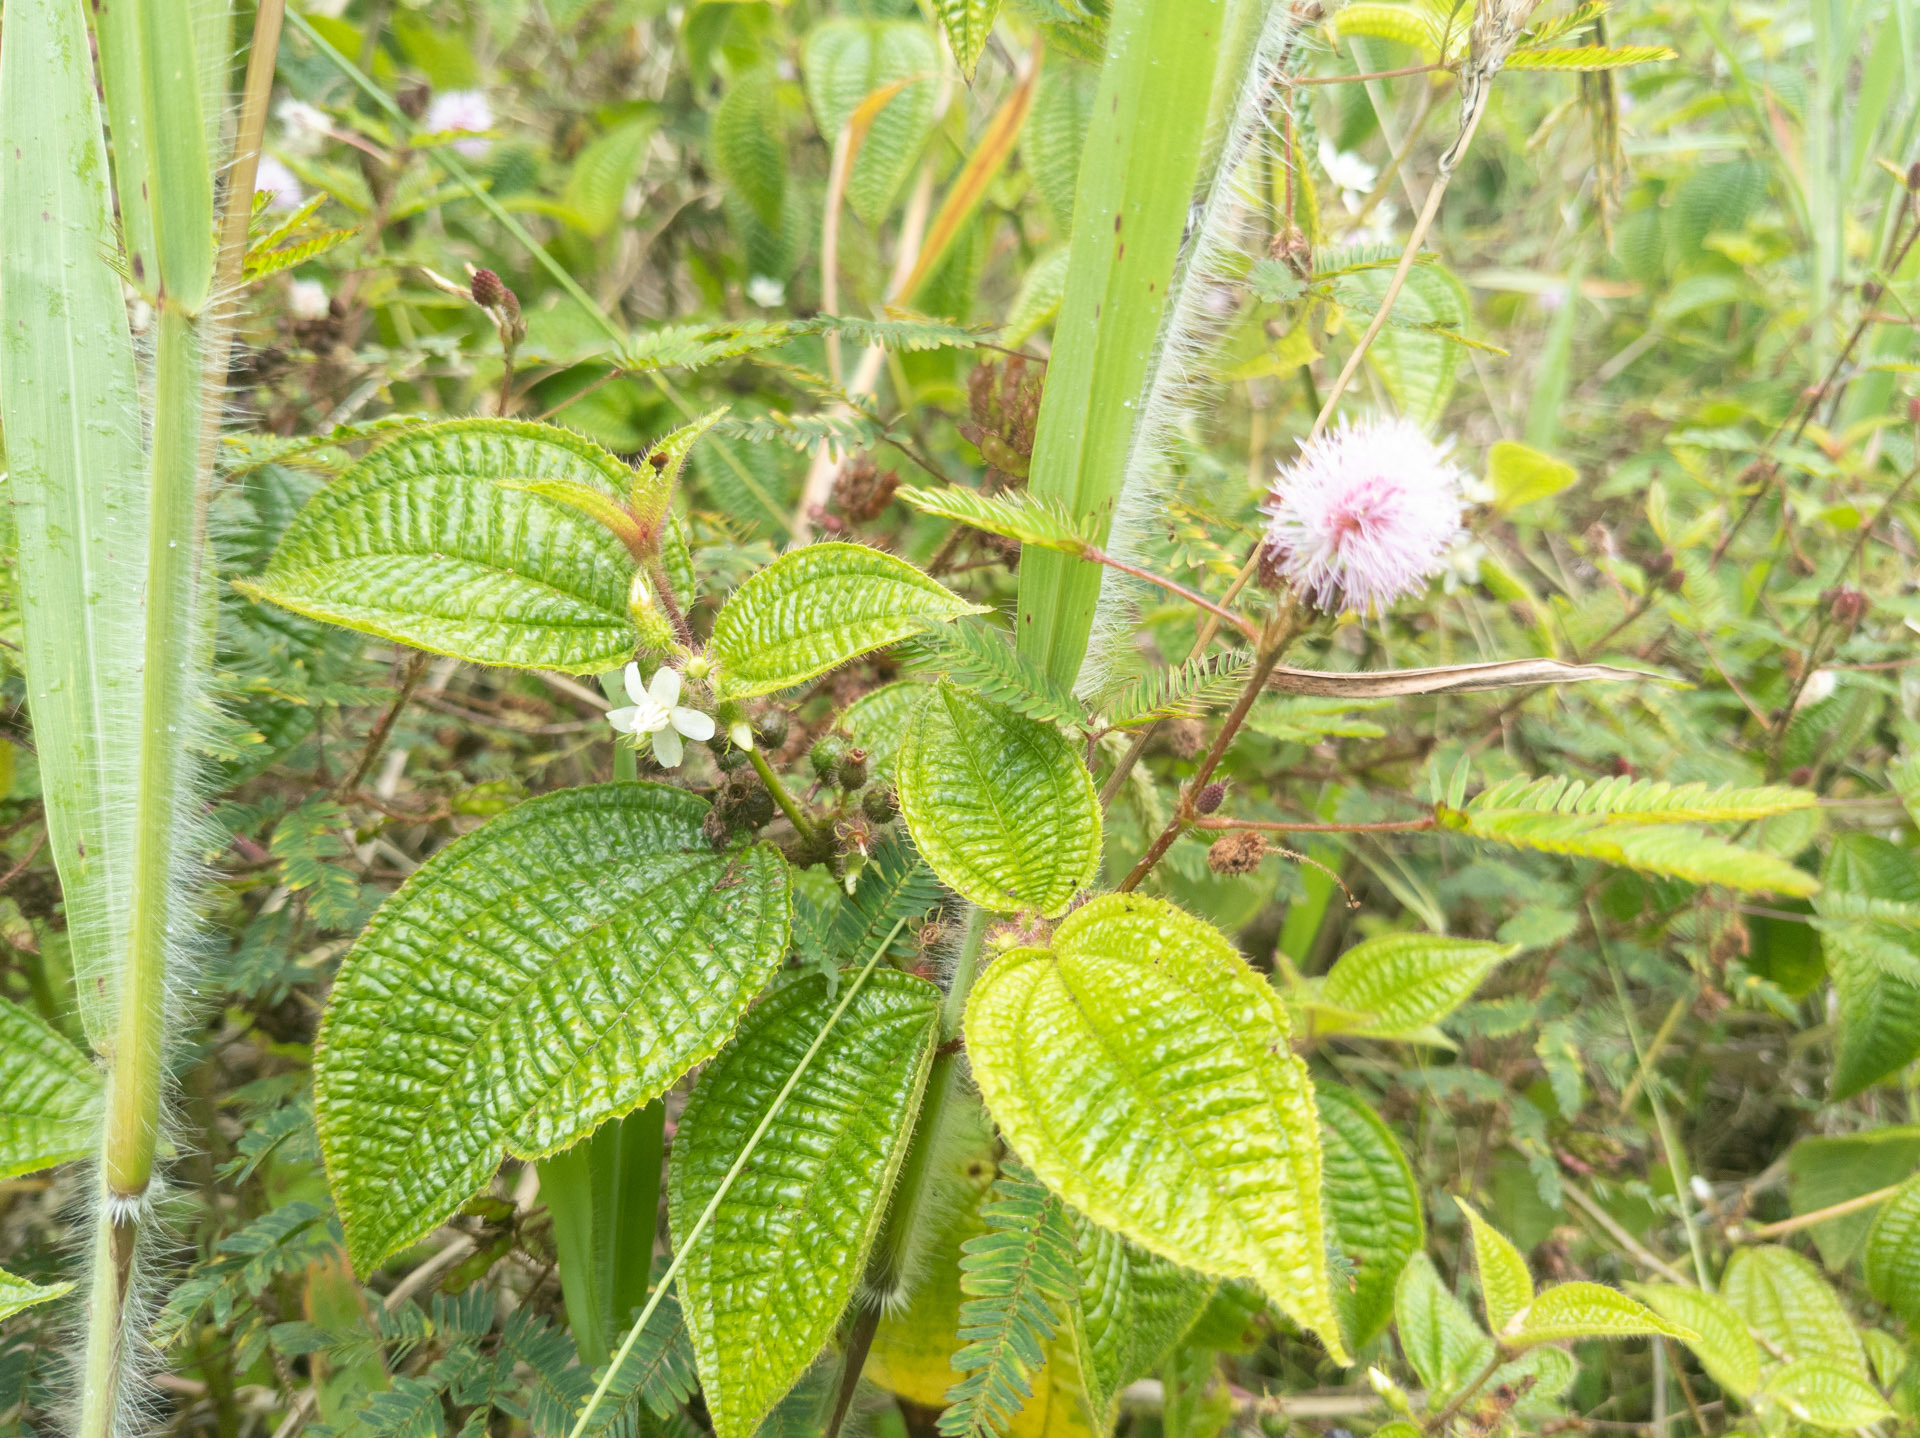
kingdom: Plantae
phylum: Tracheophyta
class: Magnoliopsida
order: Myrtales
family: Melastomataceae
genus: Miconia
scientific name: Miconia crenata
